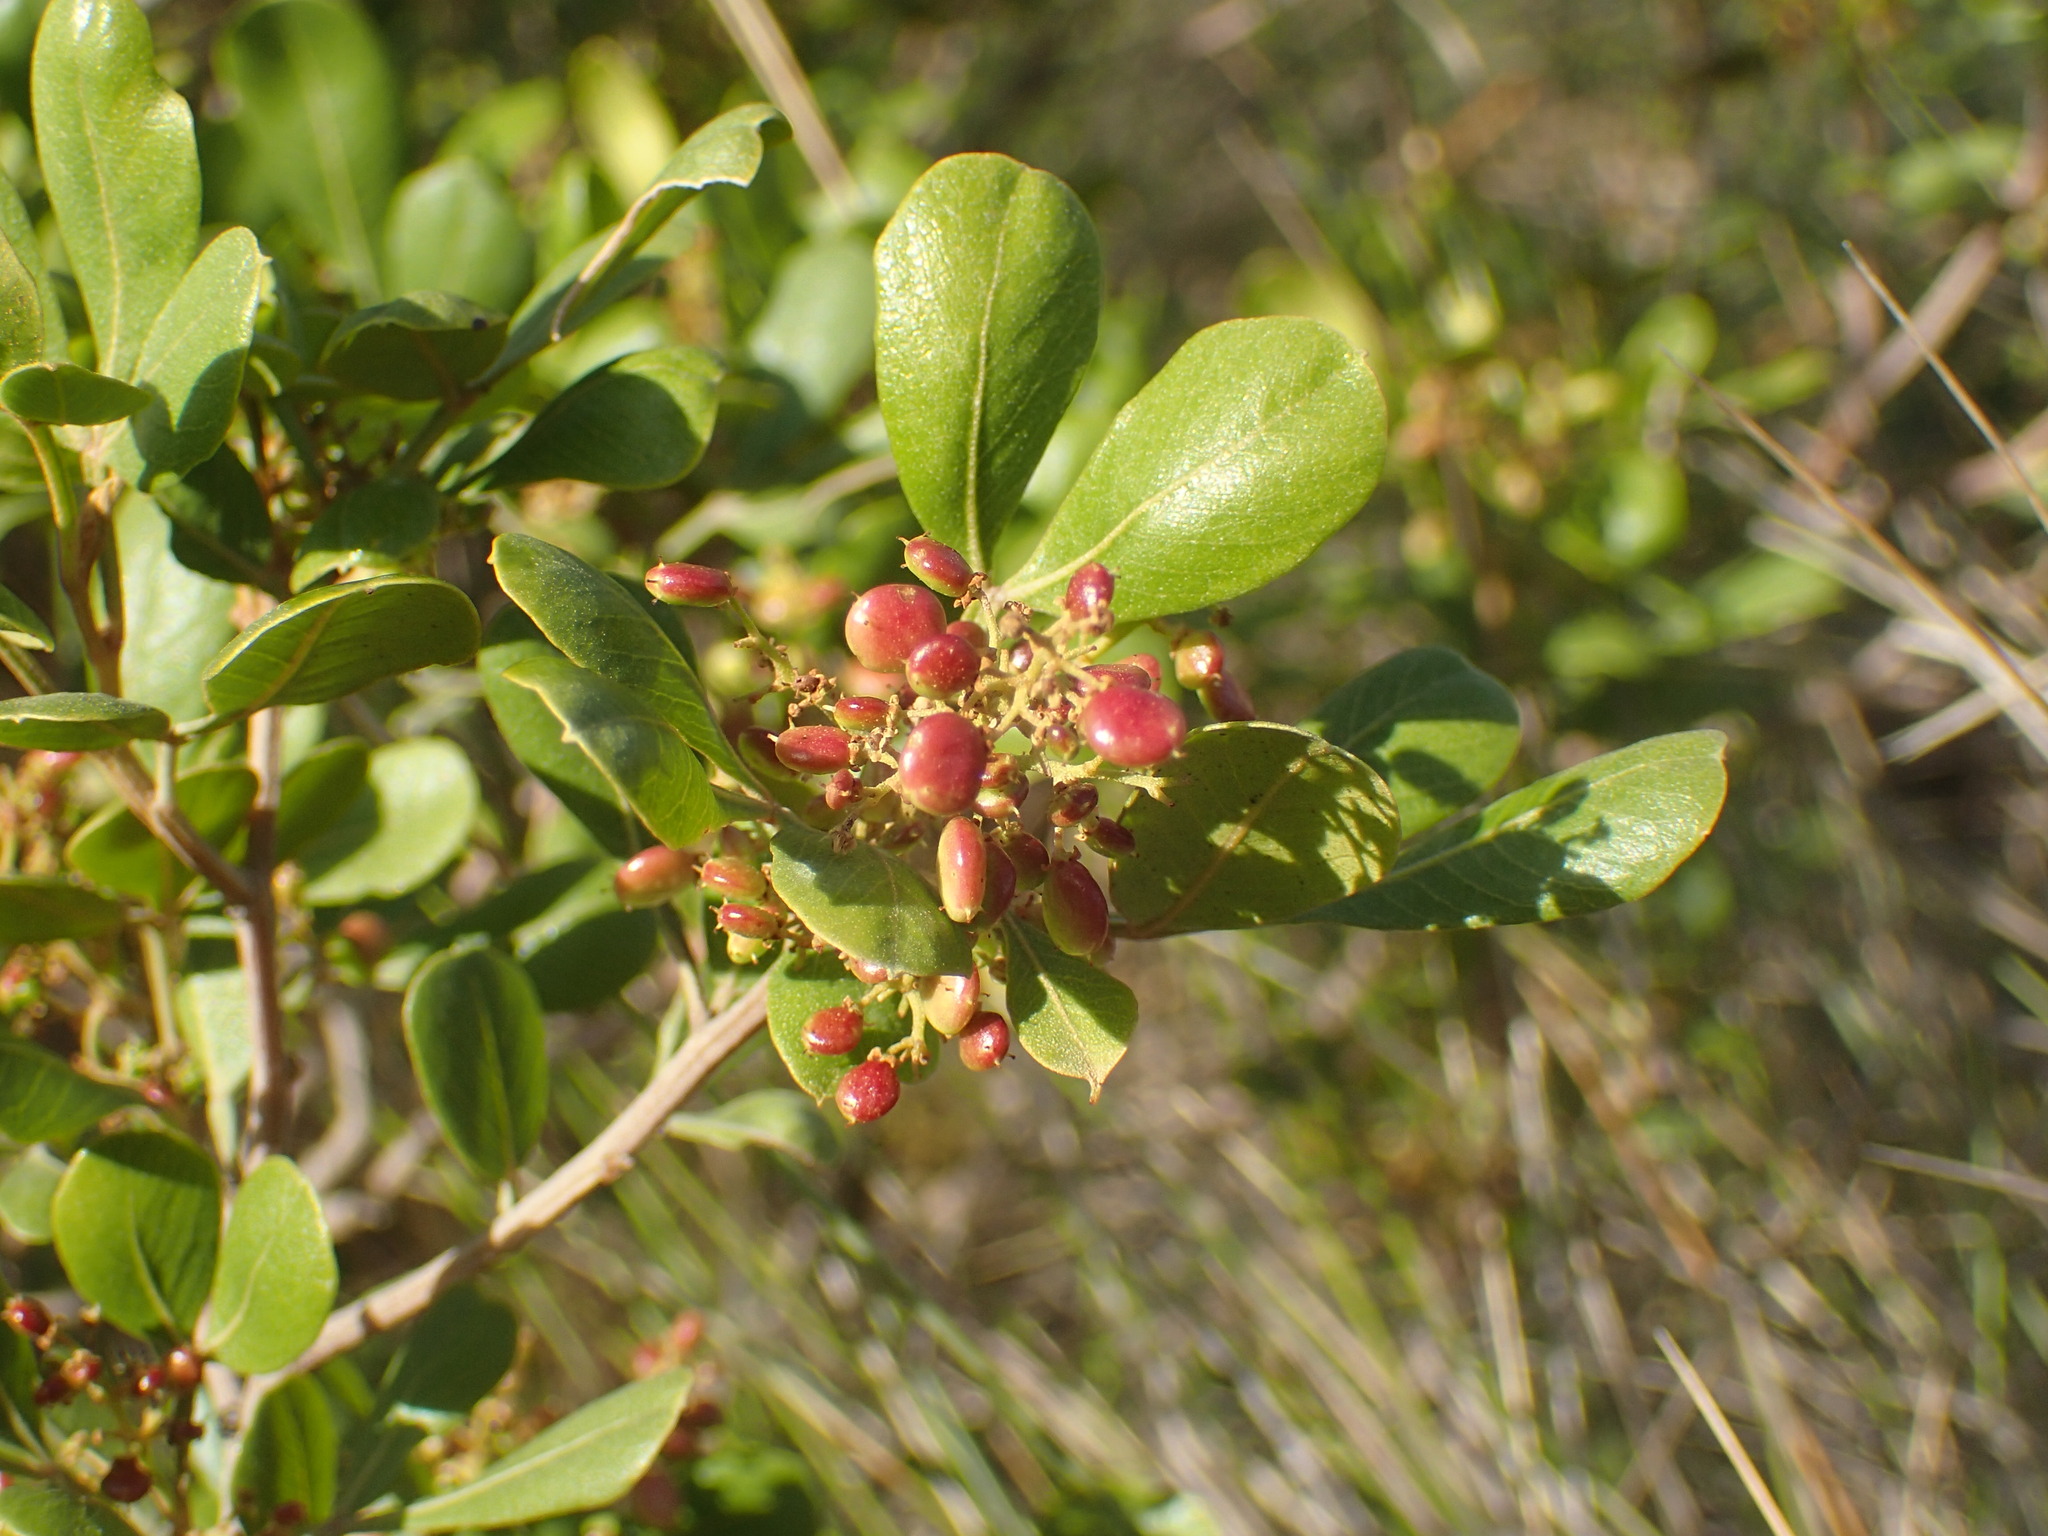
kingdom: Plantae
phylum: Tracheophyta
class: Magnoliopsida
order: Sapindales
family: Anacardiaceae
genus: Searsia
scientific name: Searsia pallens
